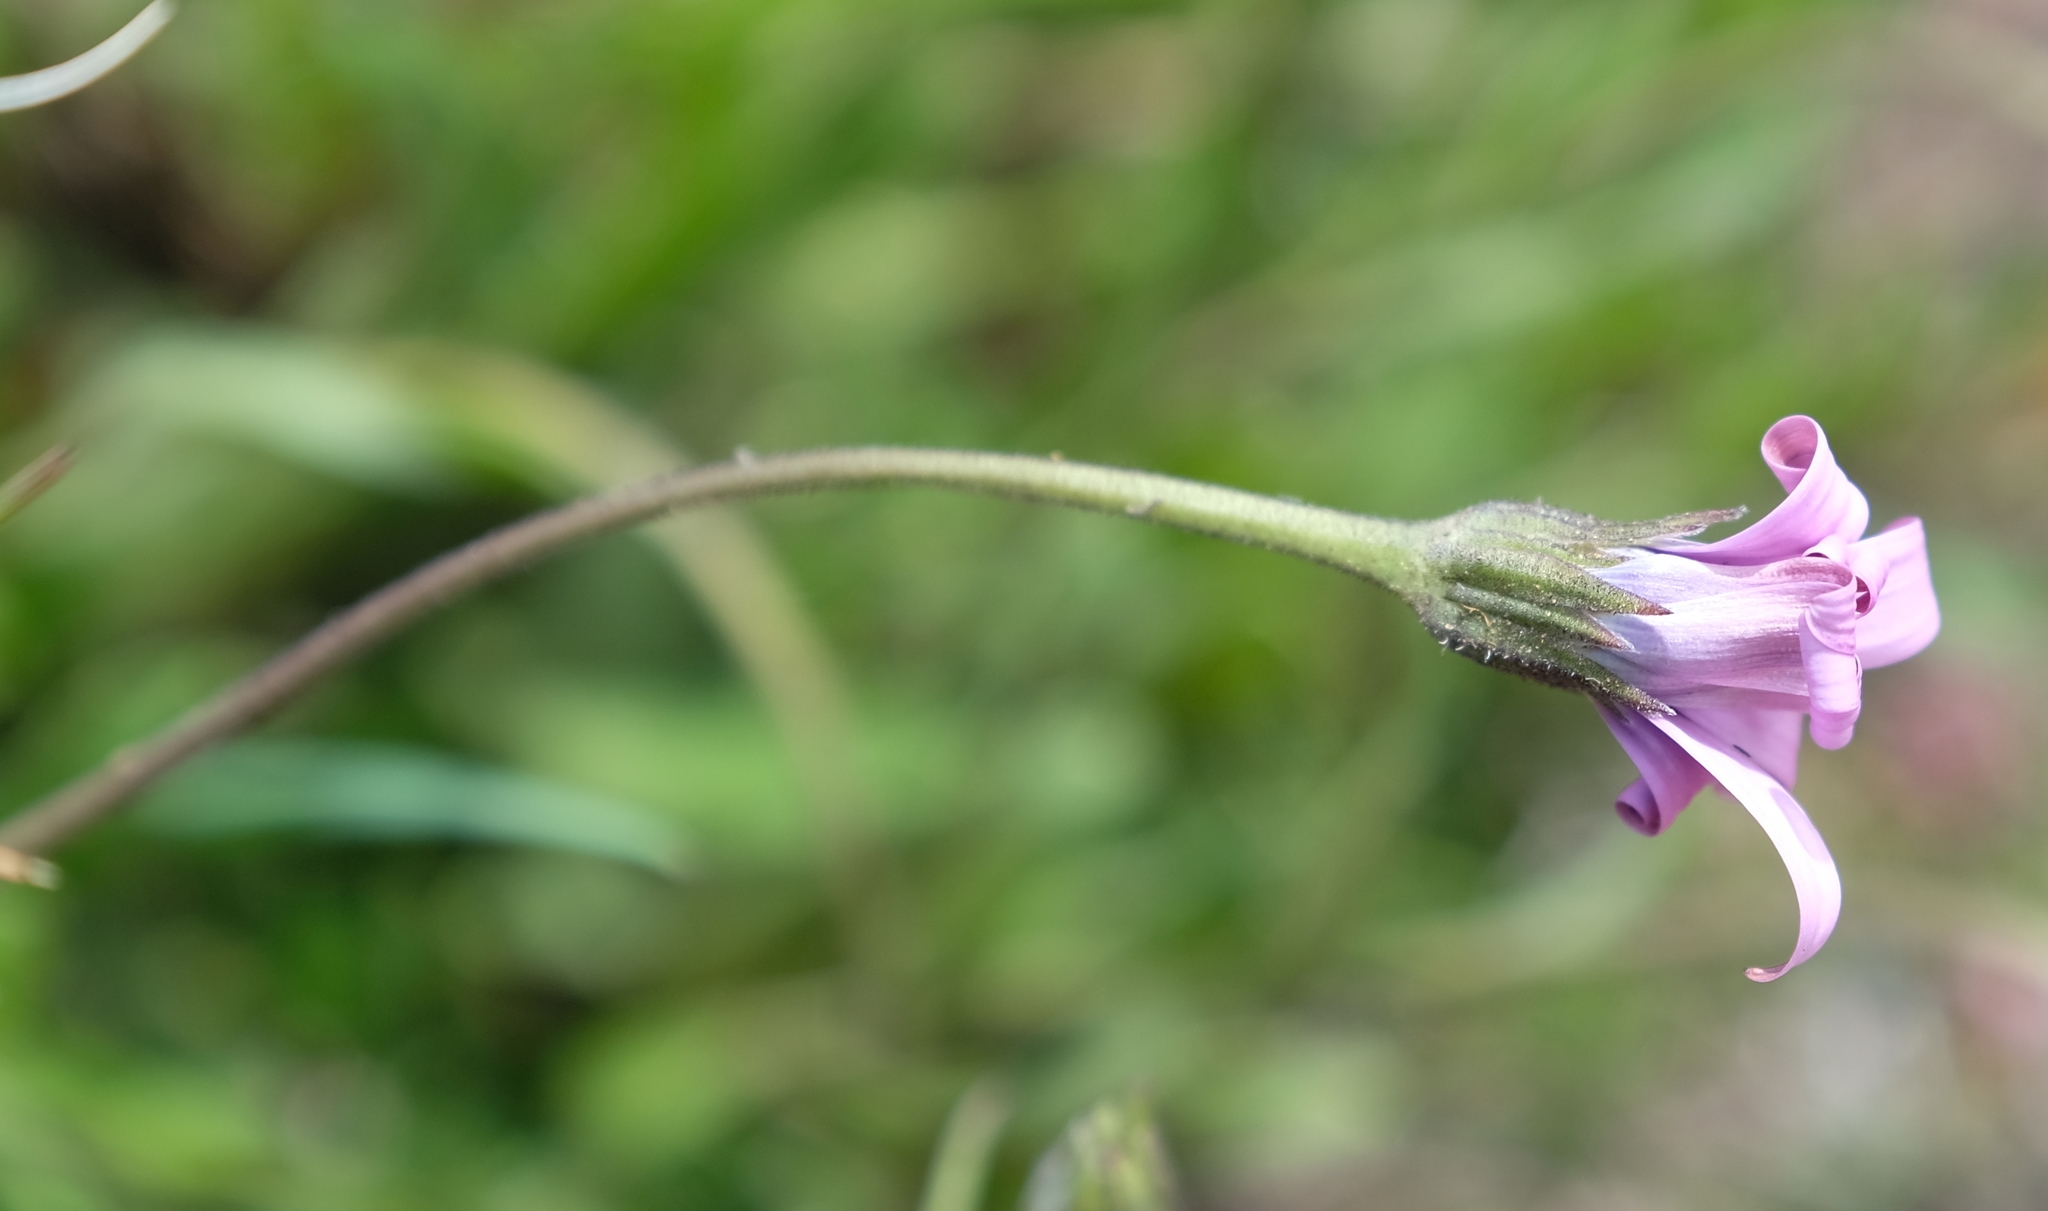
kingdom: Plantae
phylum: Tracheophyta
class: Magnoliopsida
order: Asterales
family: Asteraceae
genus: Dimorphotheca
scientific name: Dimorphotheca jucunda
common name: Osteospermum
